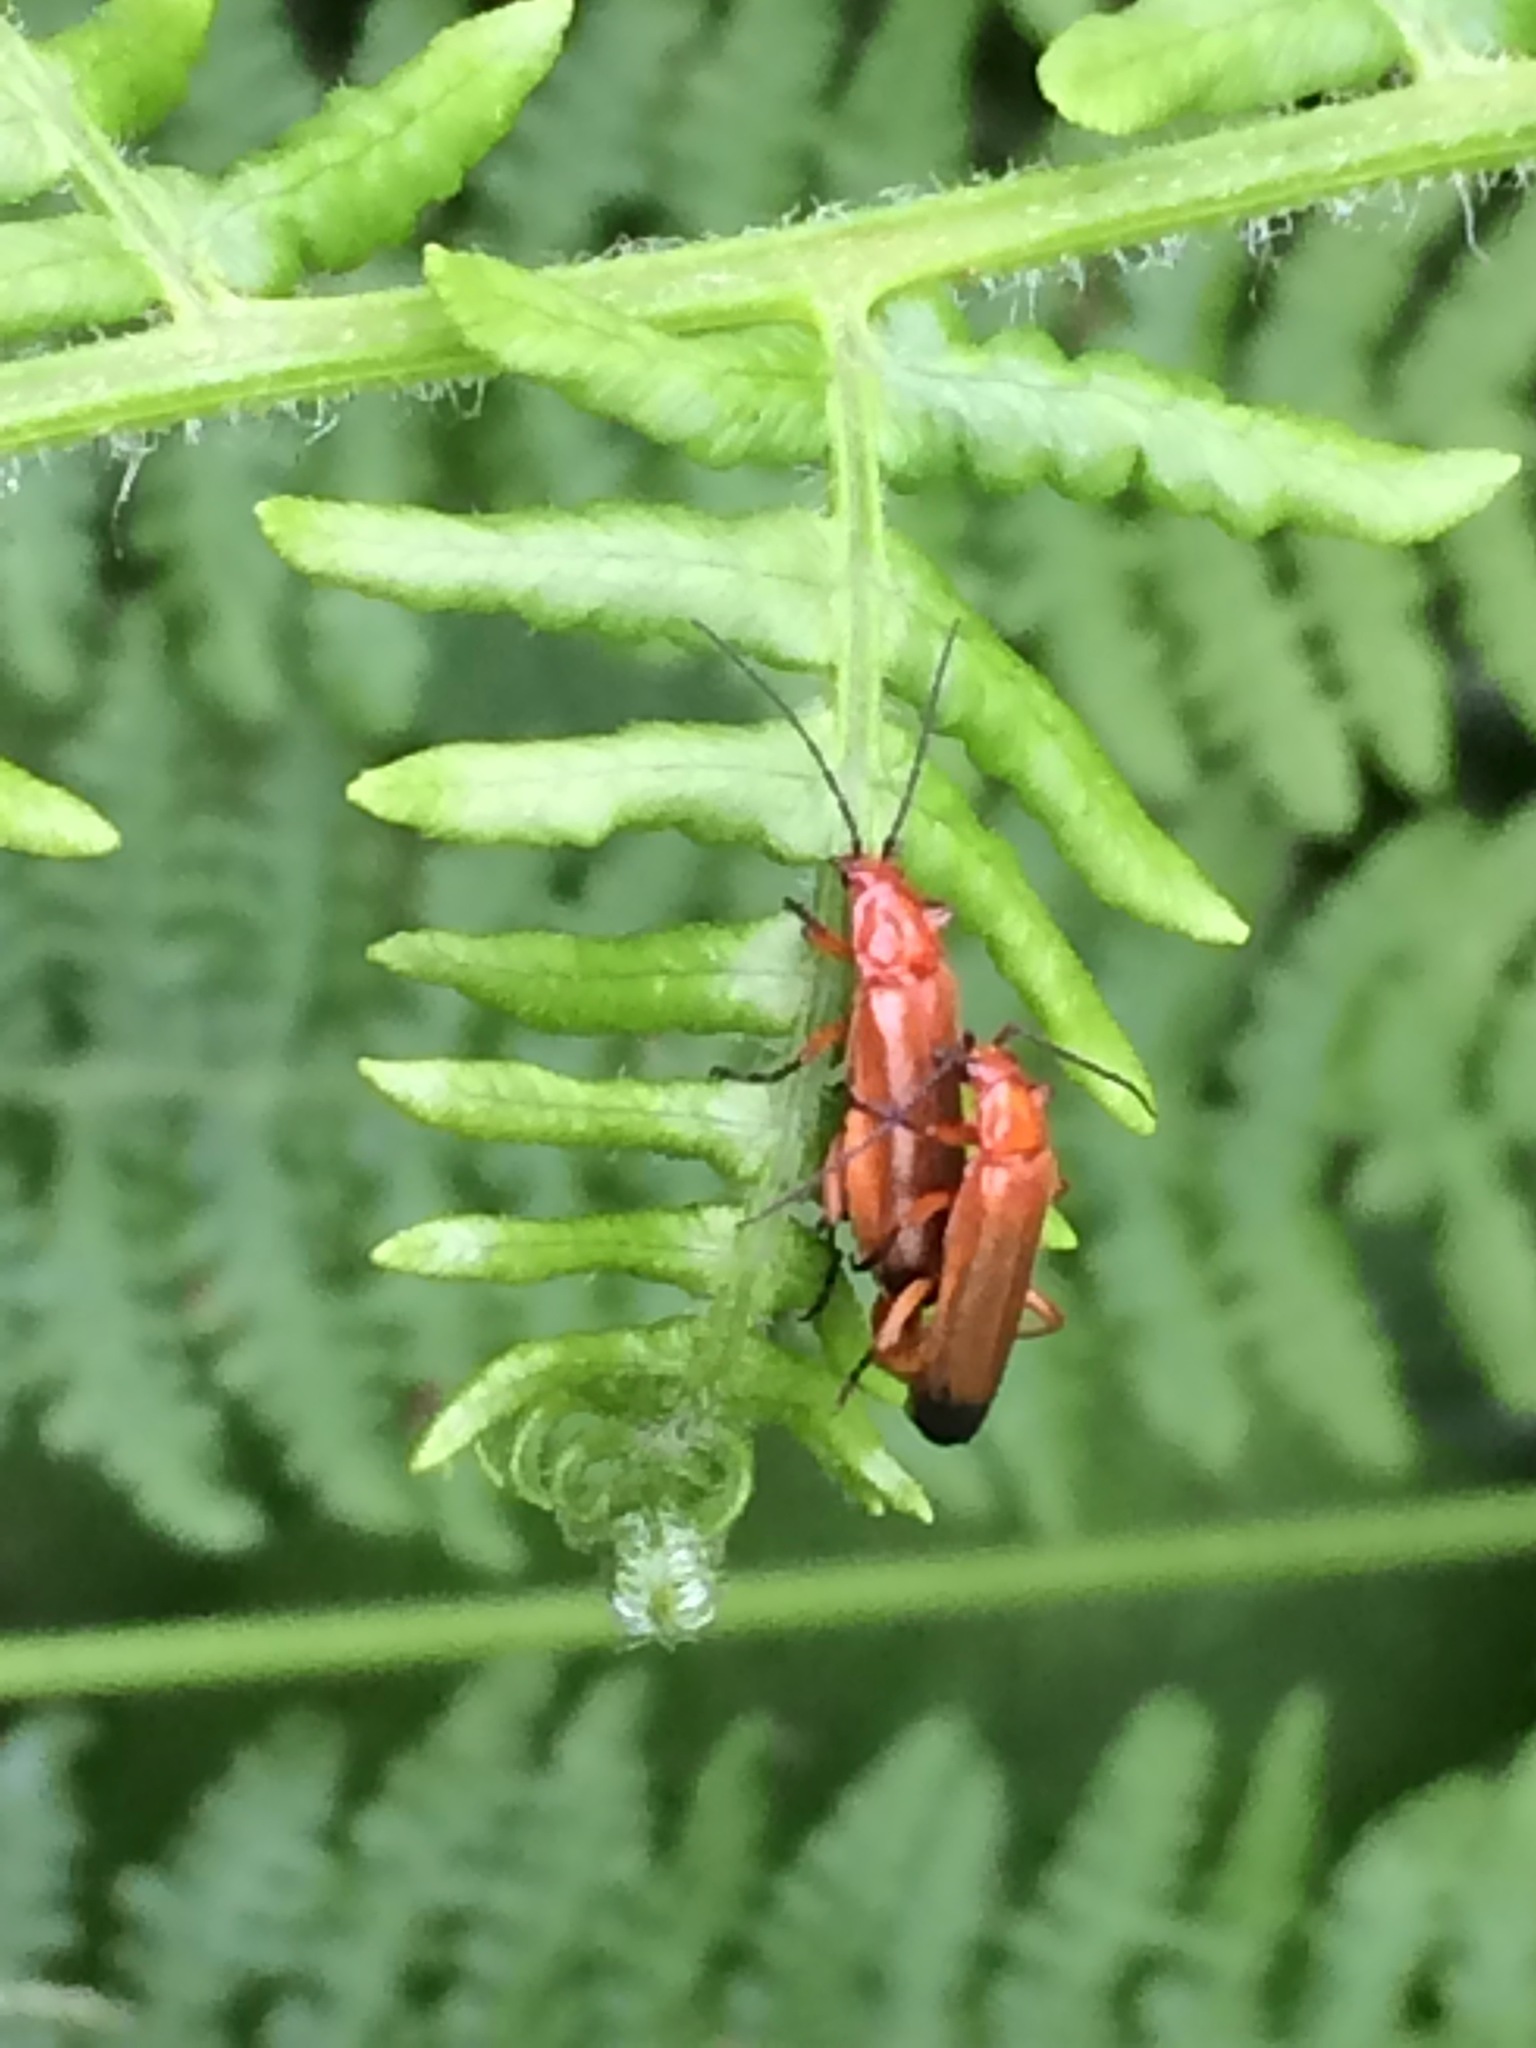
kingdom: Animalia
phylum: Arthropoda
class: Insecta
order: Coleoptera
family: Cantharidae
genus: Rhagonycha
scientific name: Rhagonycha fulva
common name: Common red soldier beetle
